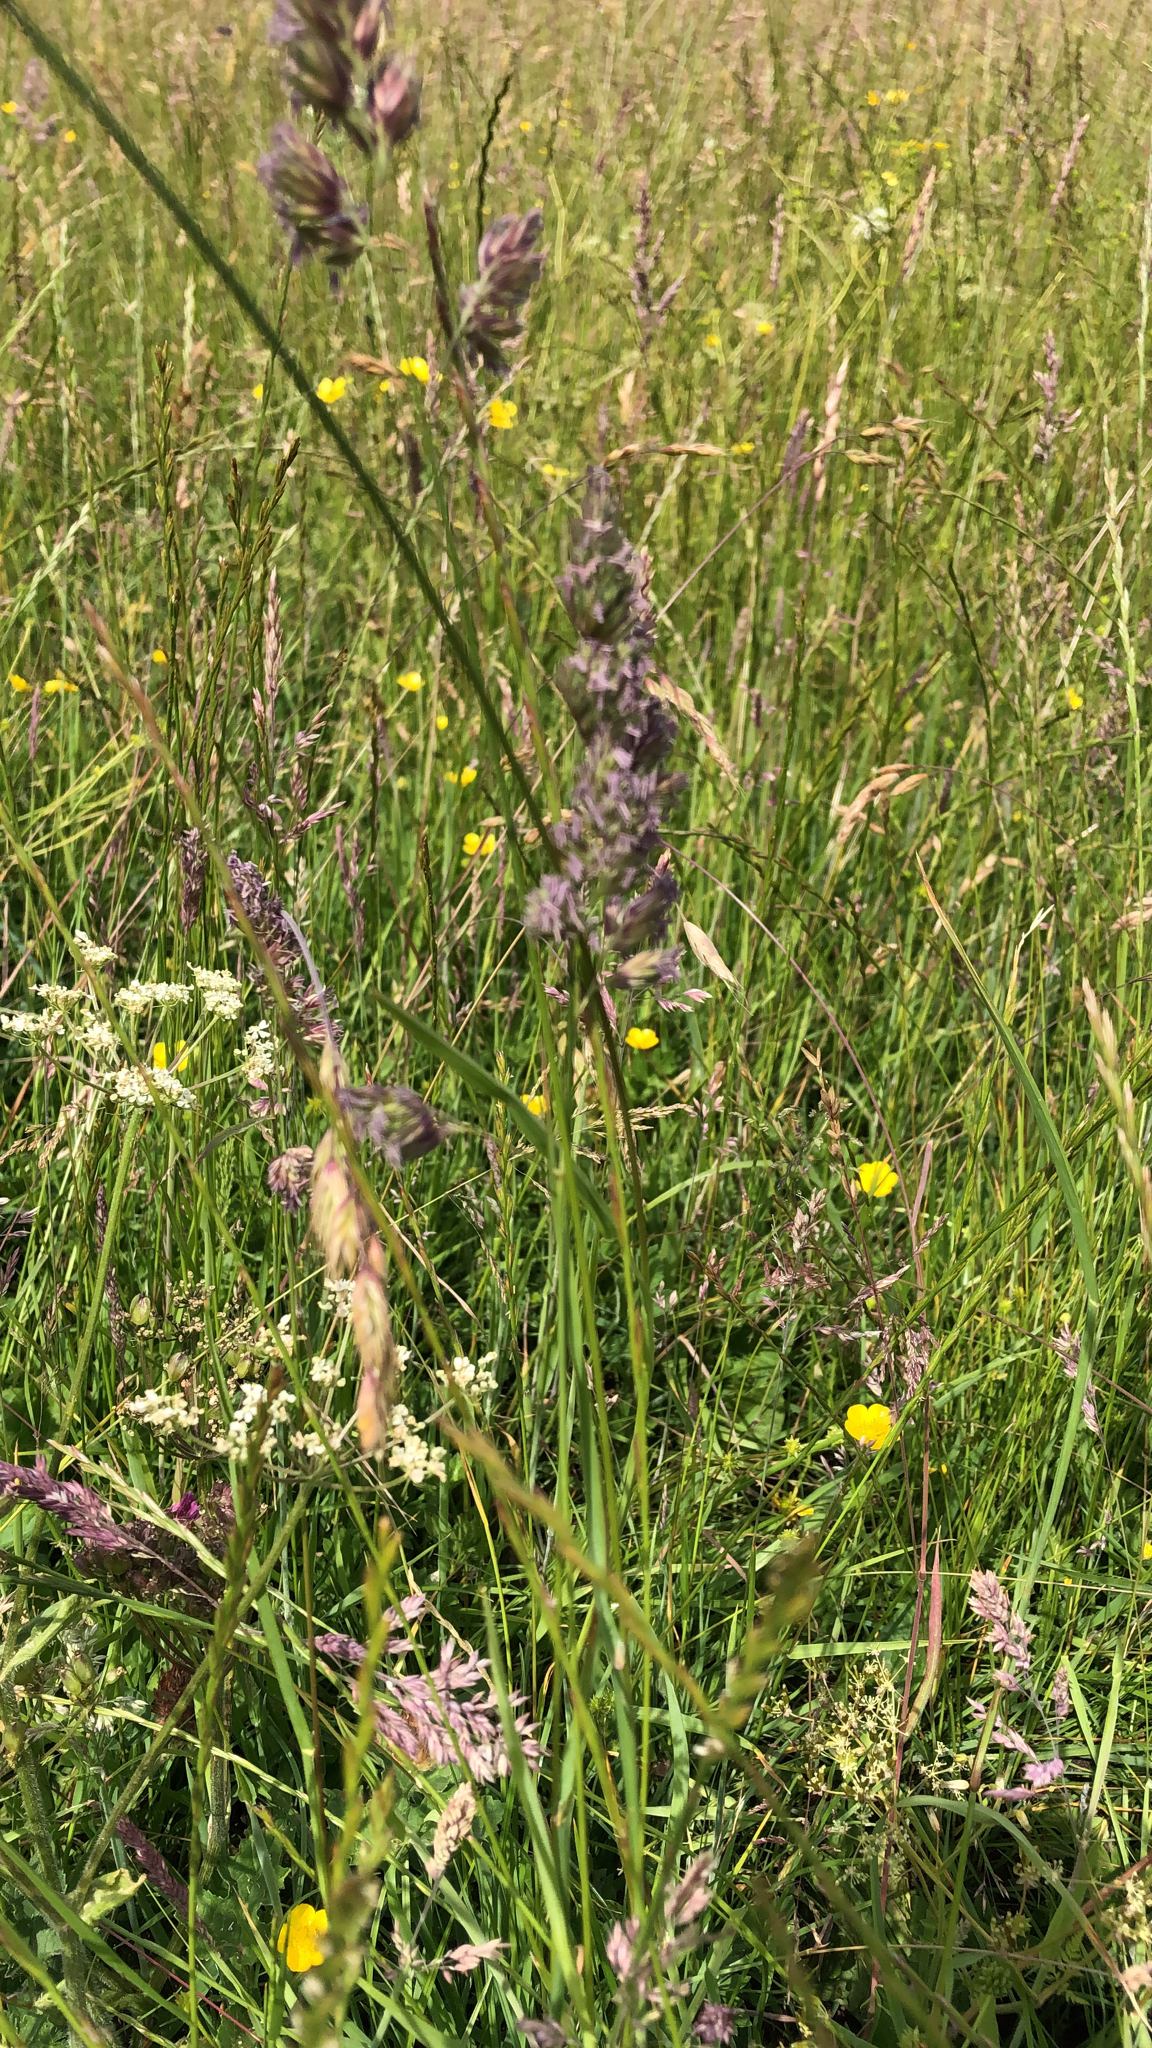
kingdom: Plantae
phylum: Tracheophyta
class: Liliopsida
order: Poales
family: Poaceae
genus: Holcus
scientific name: Holcus lanatus
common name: Yorkshire-fog
